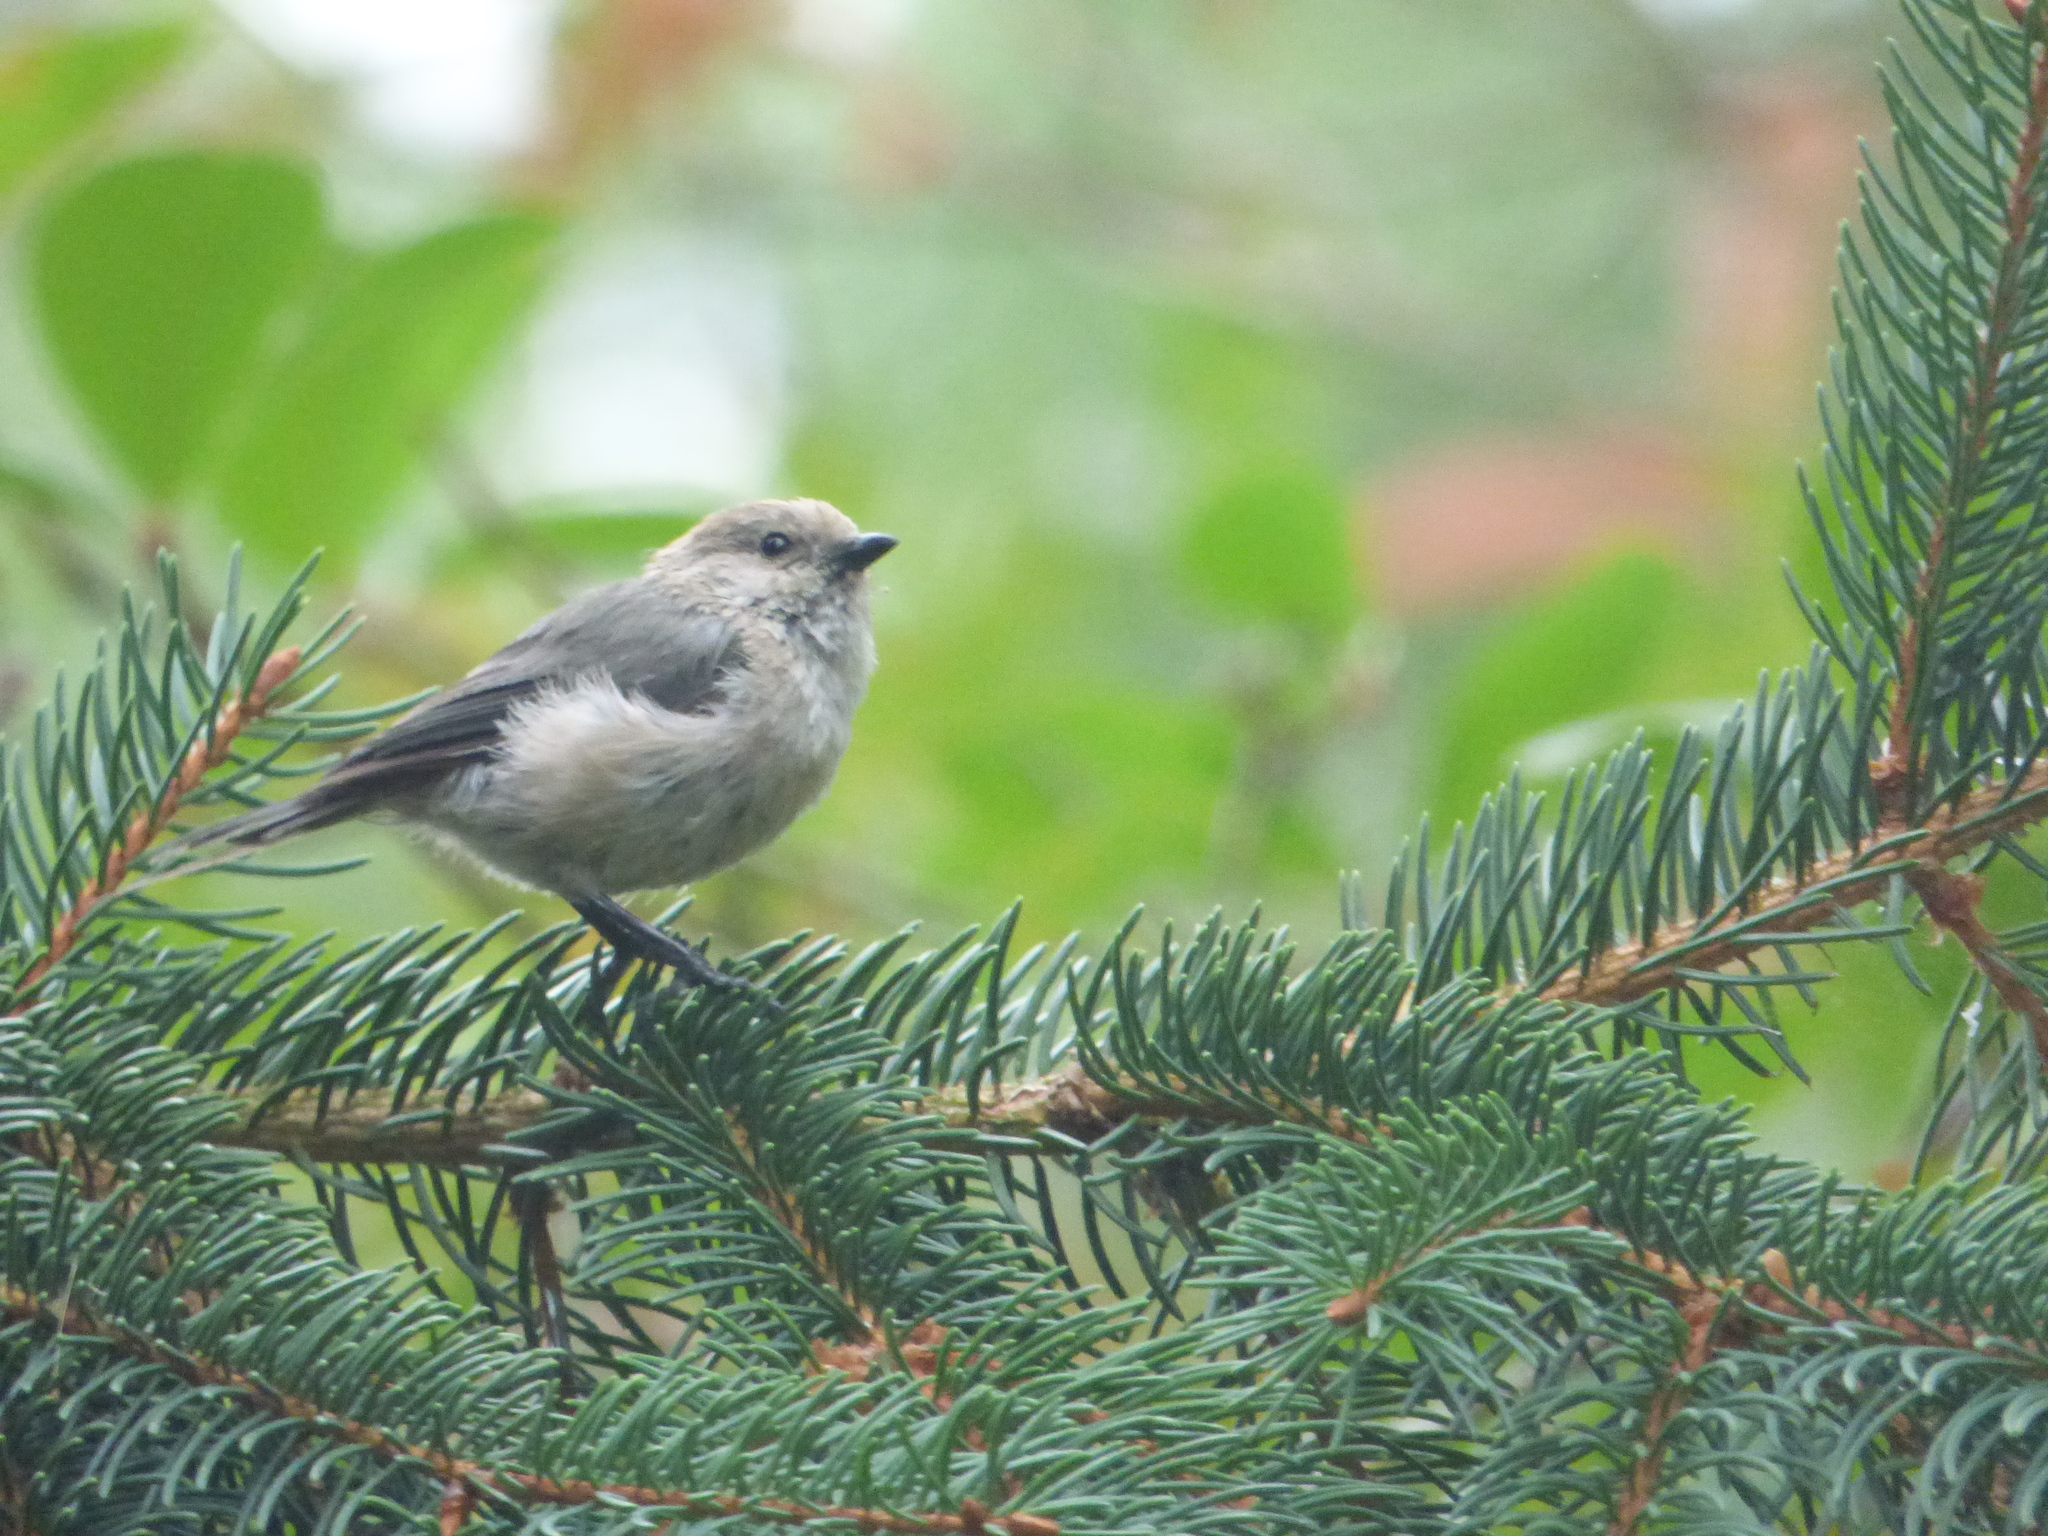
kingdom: Animalia
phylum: Chordata
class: Aves
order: Passeriformes
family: Aegithalidae
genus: Psaltriparus
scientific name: Psaltriparus minimus
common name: American bushtit
